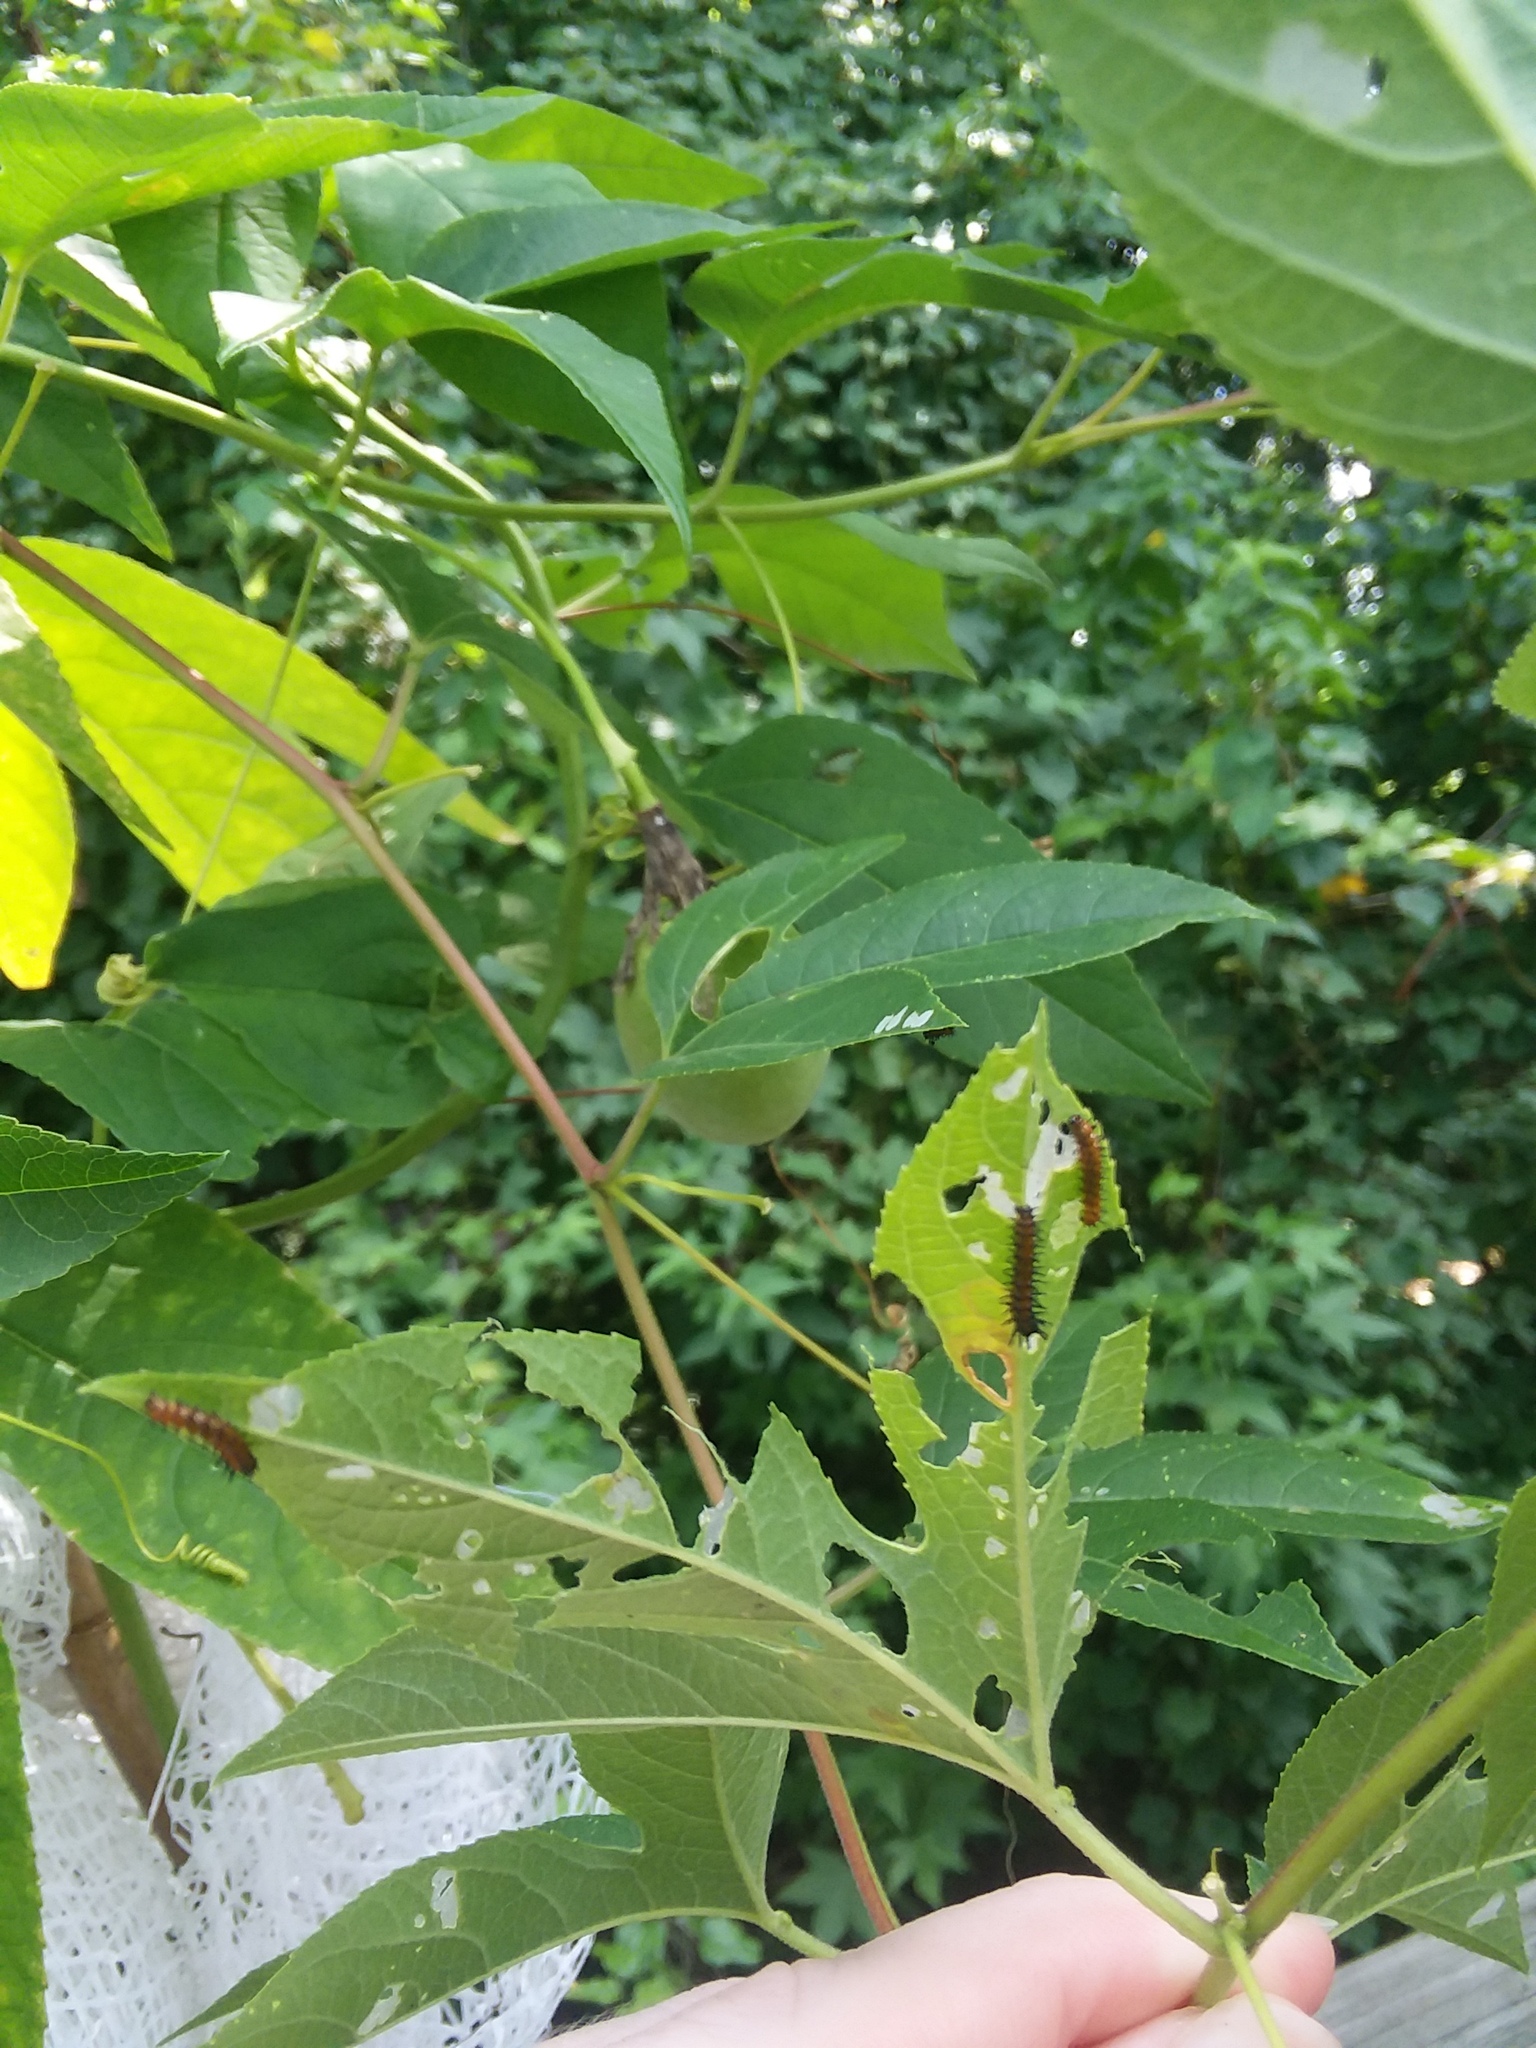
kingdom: Animalia
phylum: Arthropoda
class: Insecta
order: Lepidoptera
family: Nymphalidae
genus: Dione
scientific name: Dione vanillae
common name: Gulf fritillary
